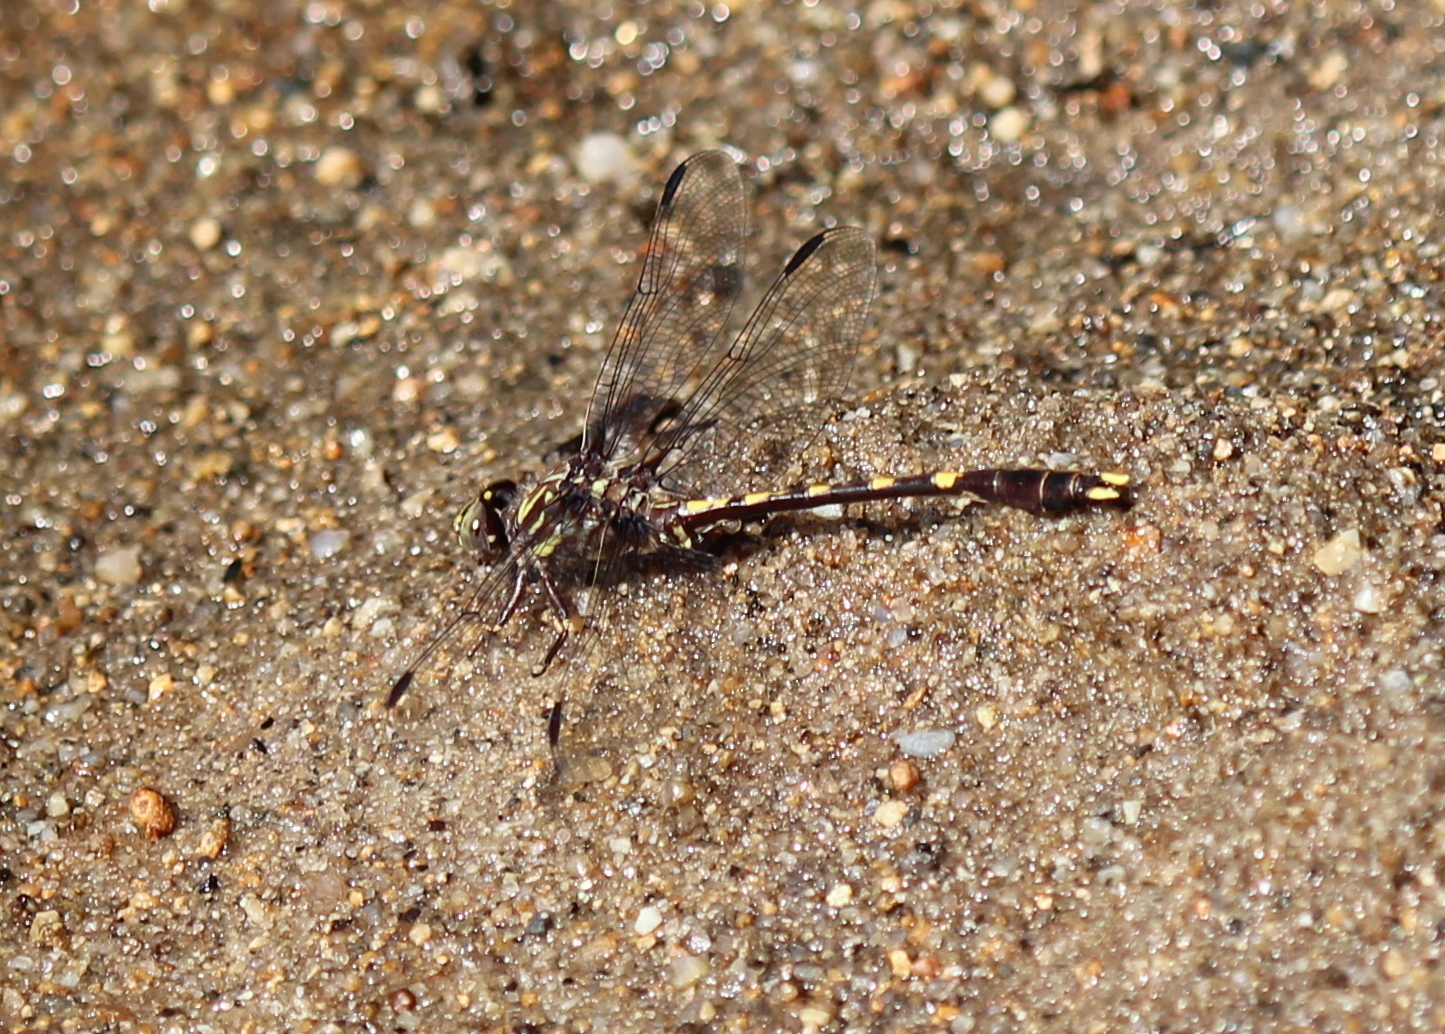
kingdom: Animalia
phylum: Arthropoda
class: Insecta
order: Odonata
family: Gomphidae
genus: Progomphus
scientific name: Progomphus obscurus
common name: Common sanddragon
